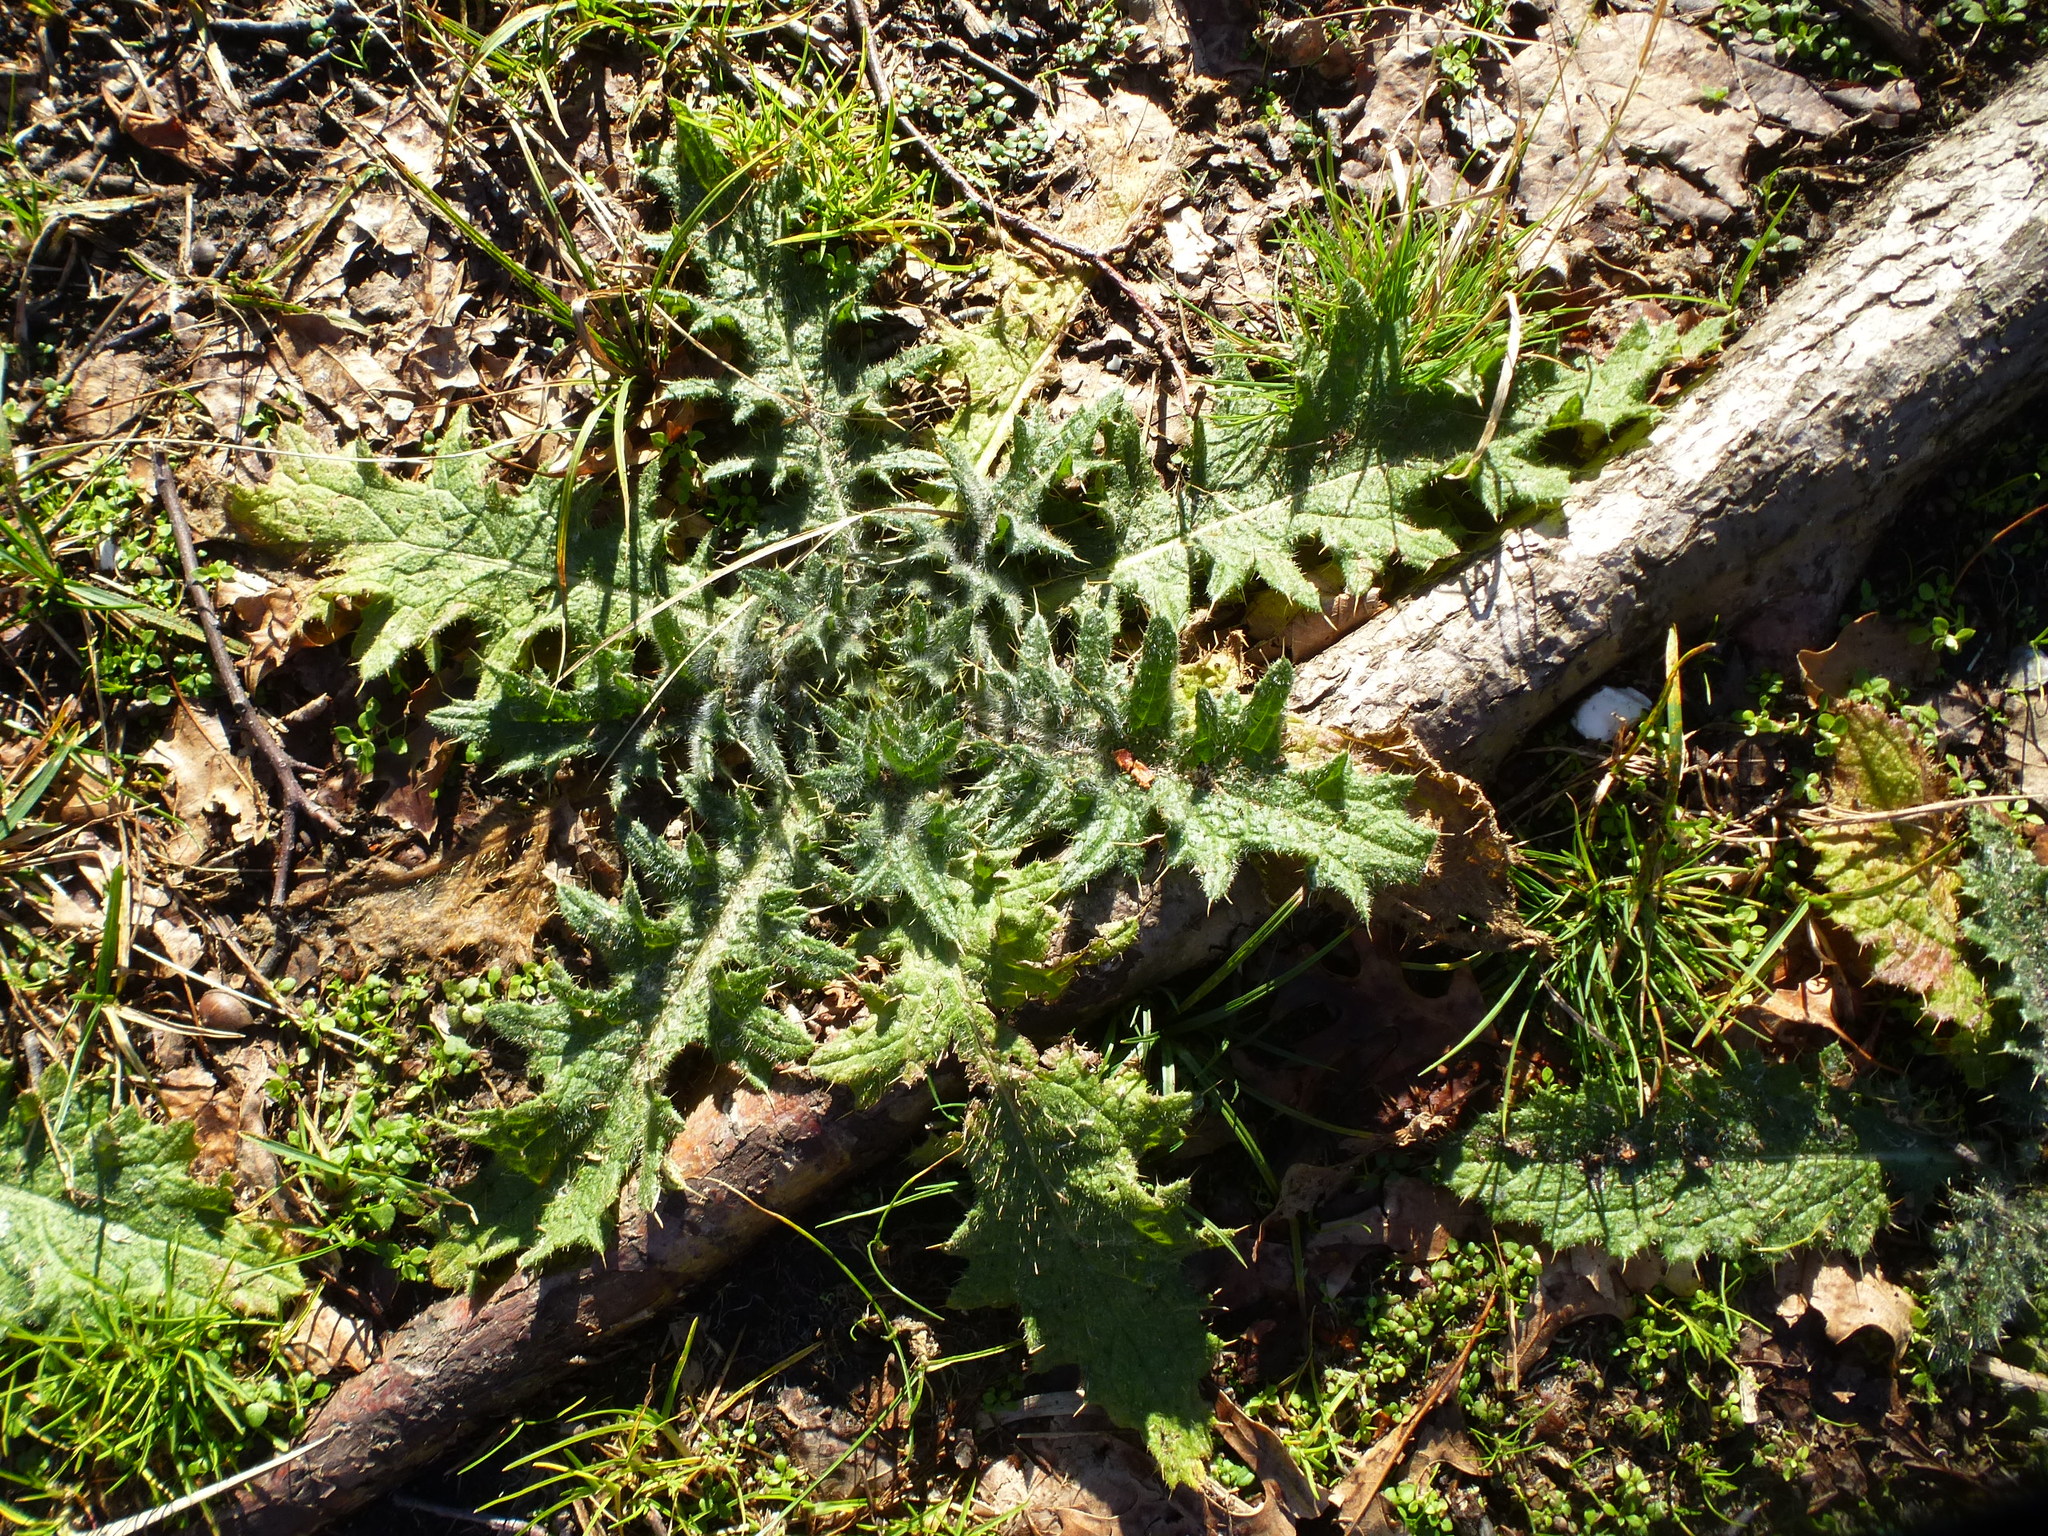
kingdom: Plantae
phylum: Tracheophyta
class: Magnoliopsida
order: Asterales
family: Asteraceae
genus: Cirsium
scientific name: Cirsium vulgare
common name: Bull thistle
